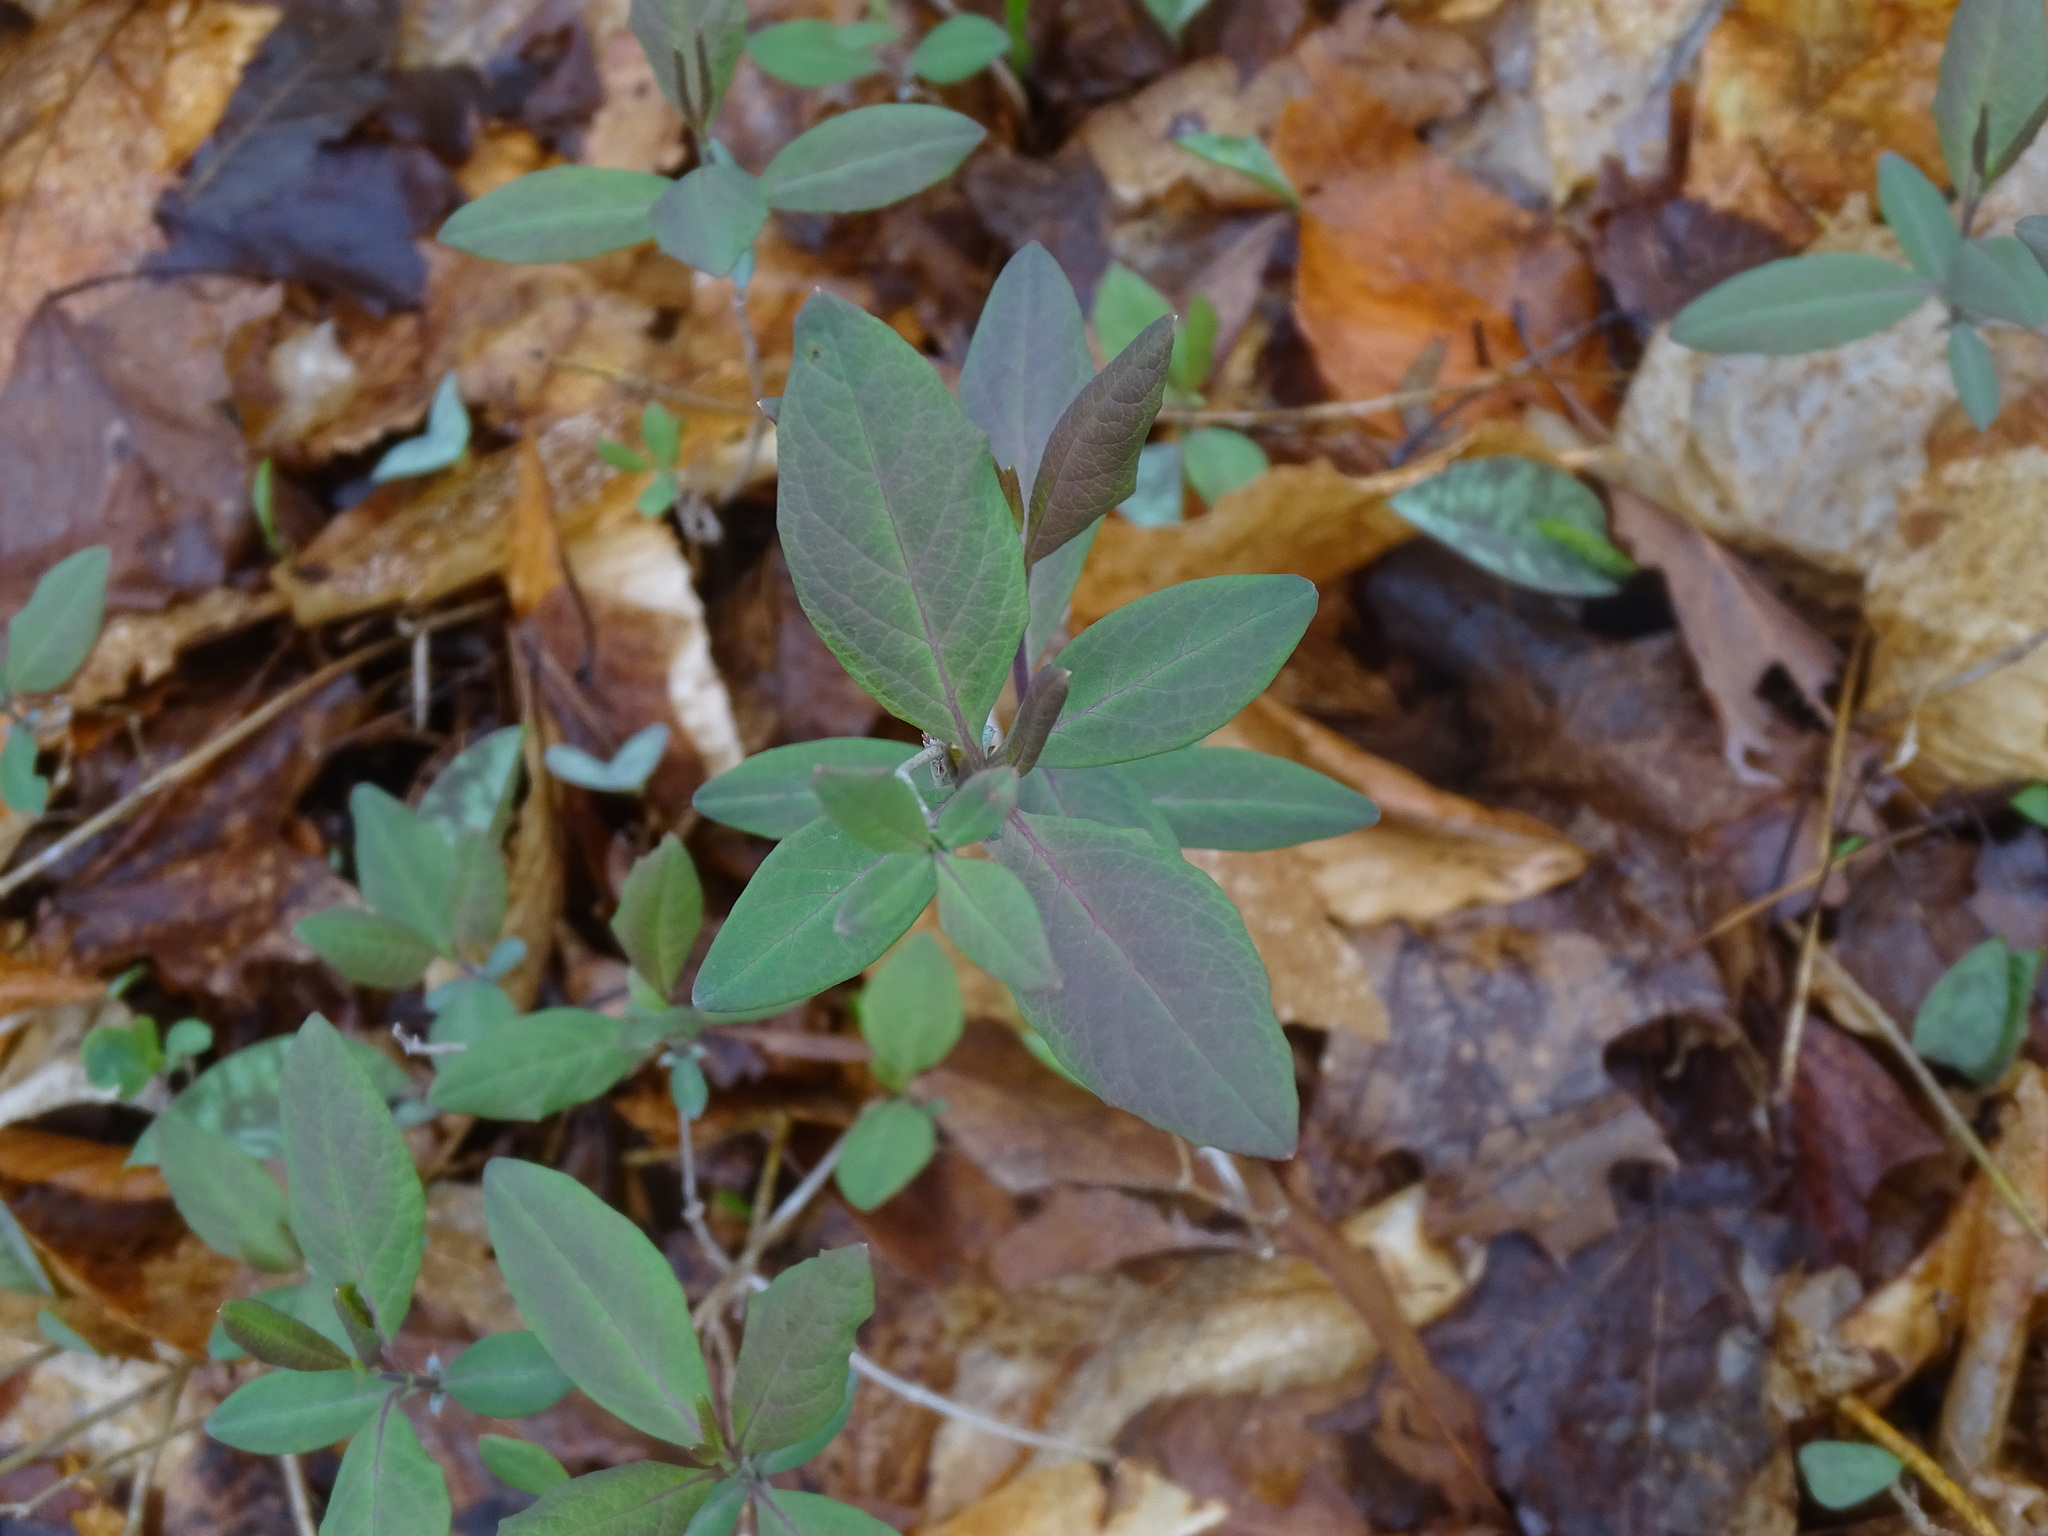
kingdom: Plantae
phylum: Tracheophyta
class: Magnoliopsida
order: Dipsacales
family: Caprifoliaceae
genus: Lonicera
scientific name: Lonicera dioica
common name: Limber honeysuckle
